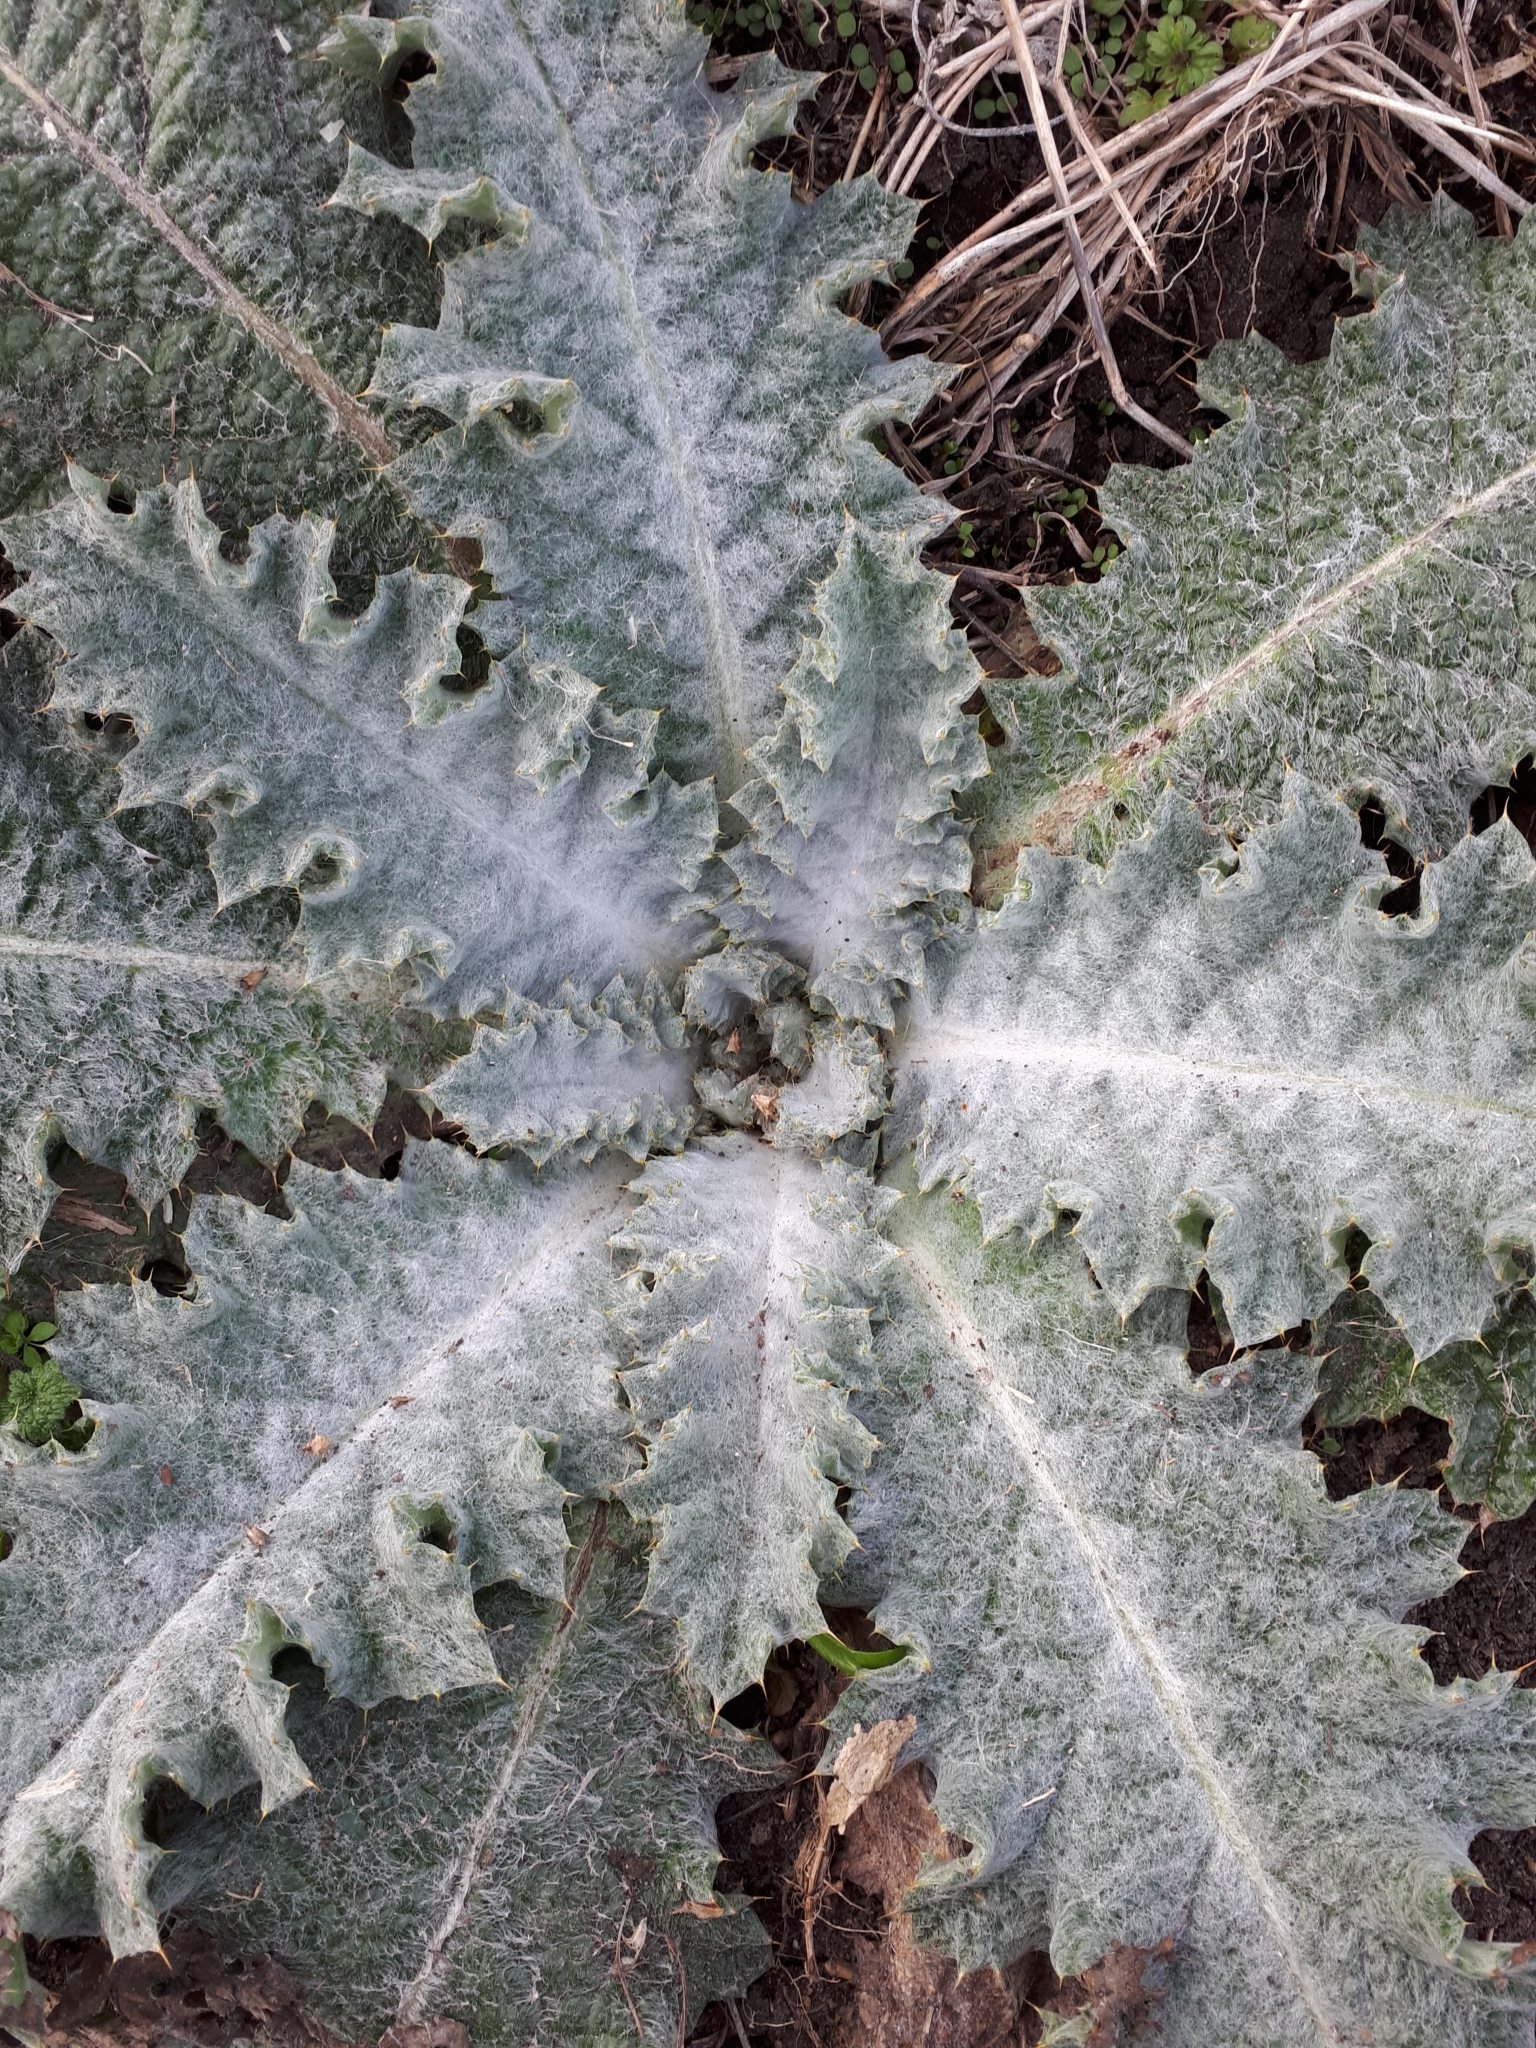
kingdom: Plantae
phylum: Tracheophyta
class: Magnoliopsida
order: Asterales
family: Asteraceae
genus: Onopordum
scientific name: Onopordum acanthium
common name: Scotch thistle
